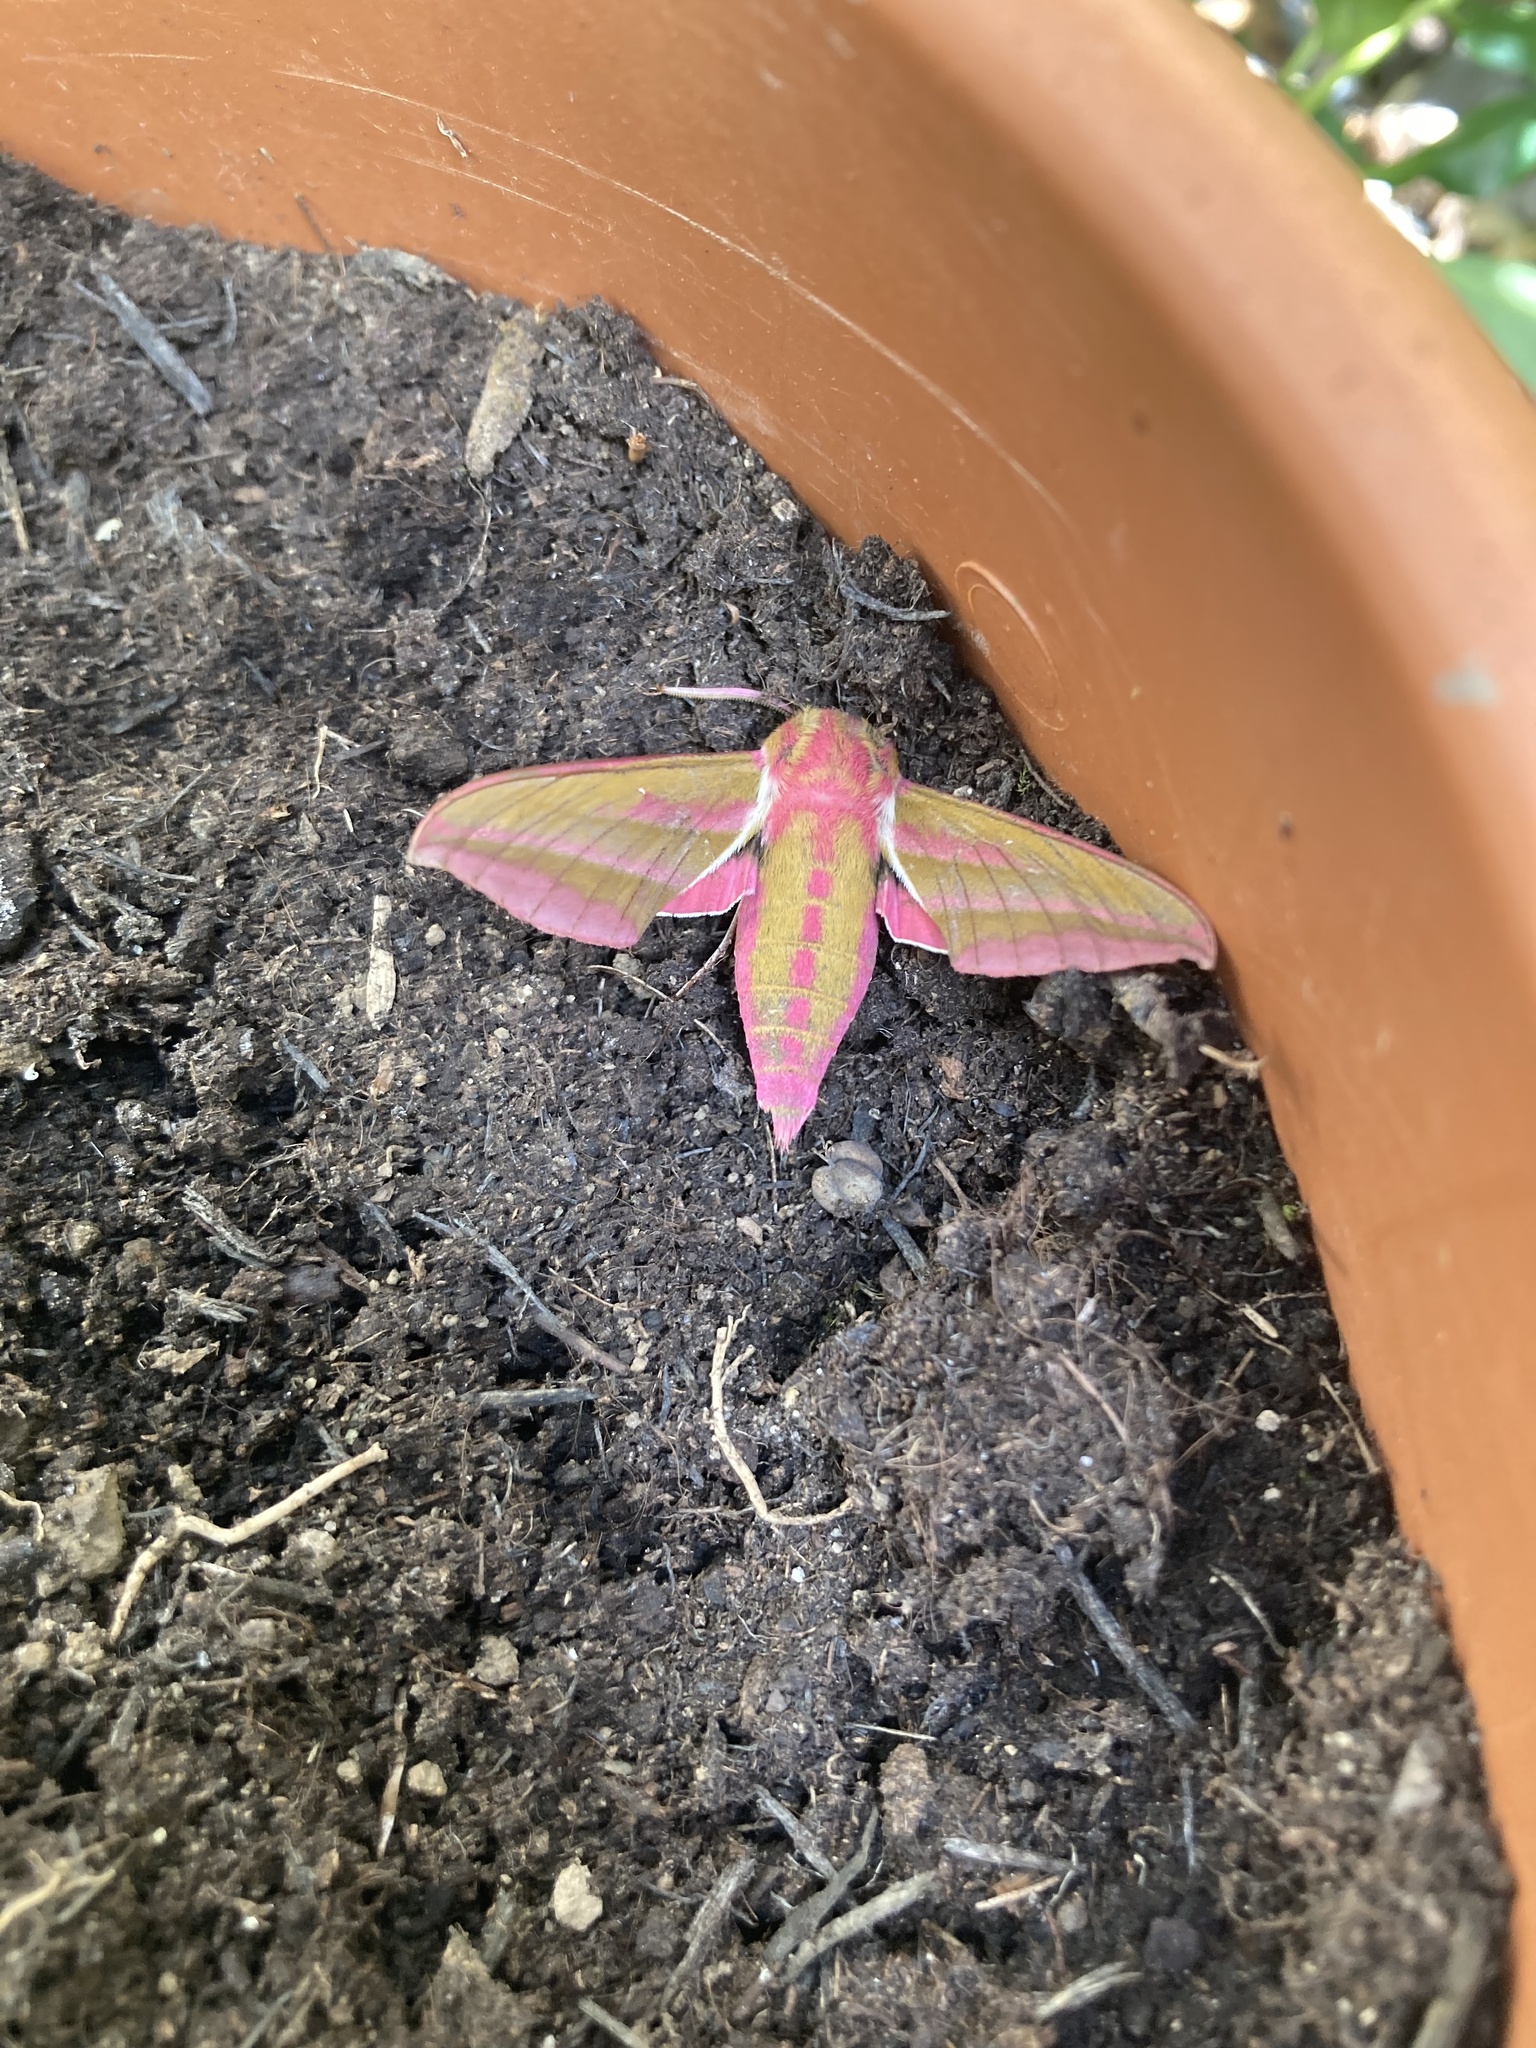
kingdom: Animalia
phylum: Arthropoda
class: Insecta
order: Lepidoptera
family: Sphingidae
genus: Deilephila
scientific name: Deilephila elpenor
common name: Elephant hawk-moth
